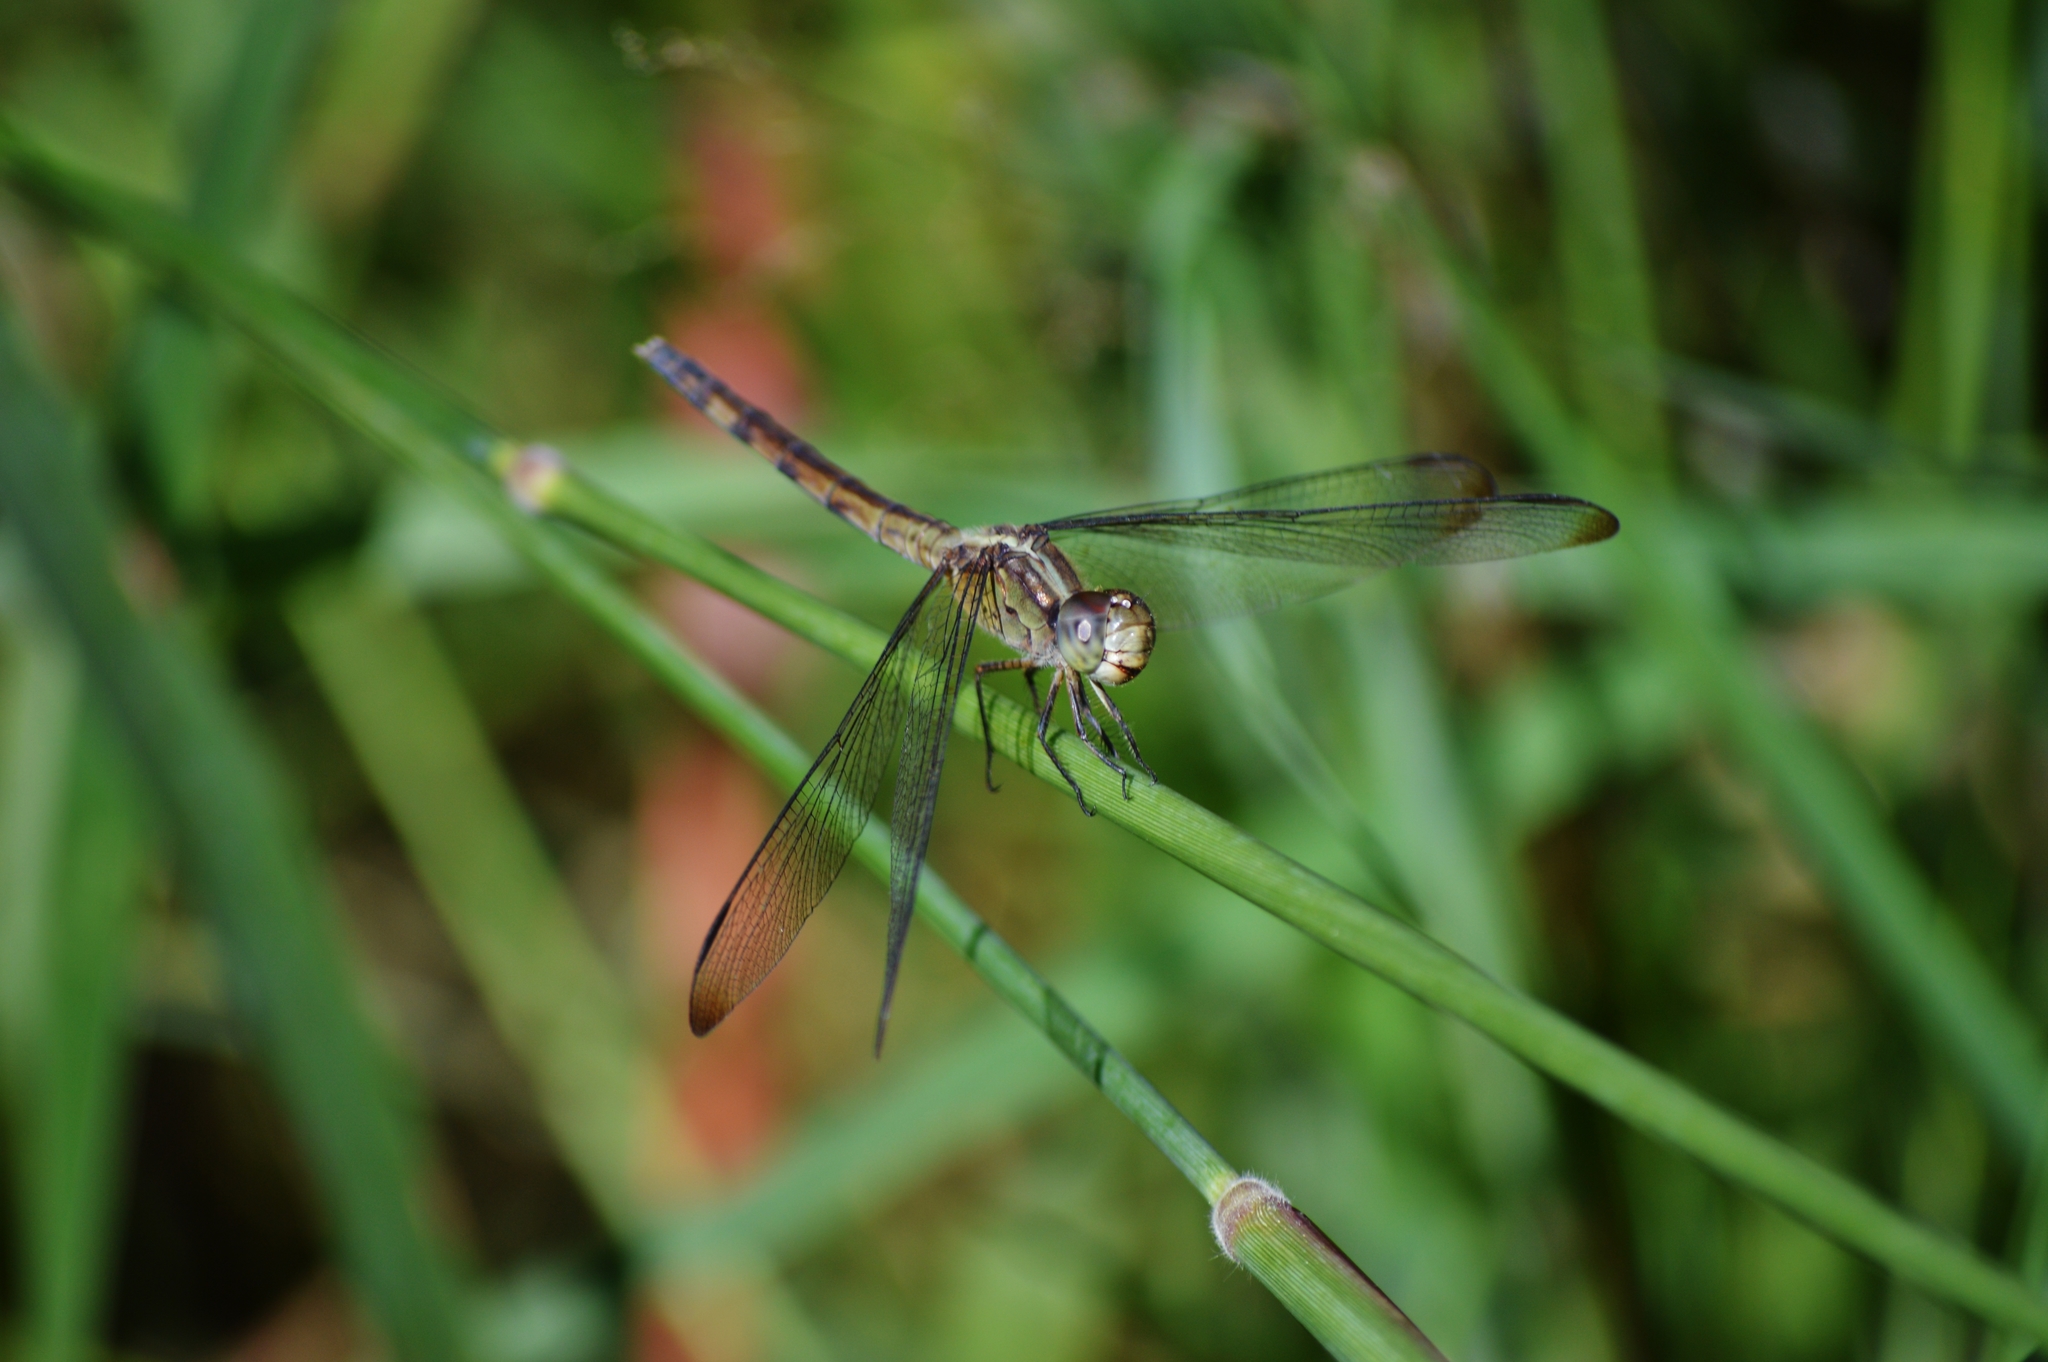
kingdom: Animalia
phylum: Arthropoda
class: Insecta
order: Odonata
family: Libellulidae
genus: Erythrodiplax
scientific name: Erythrodiplax ochracea
